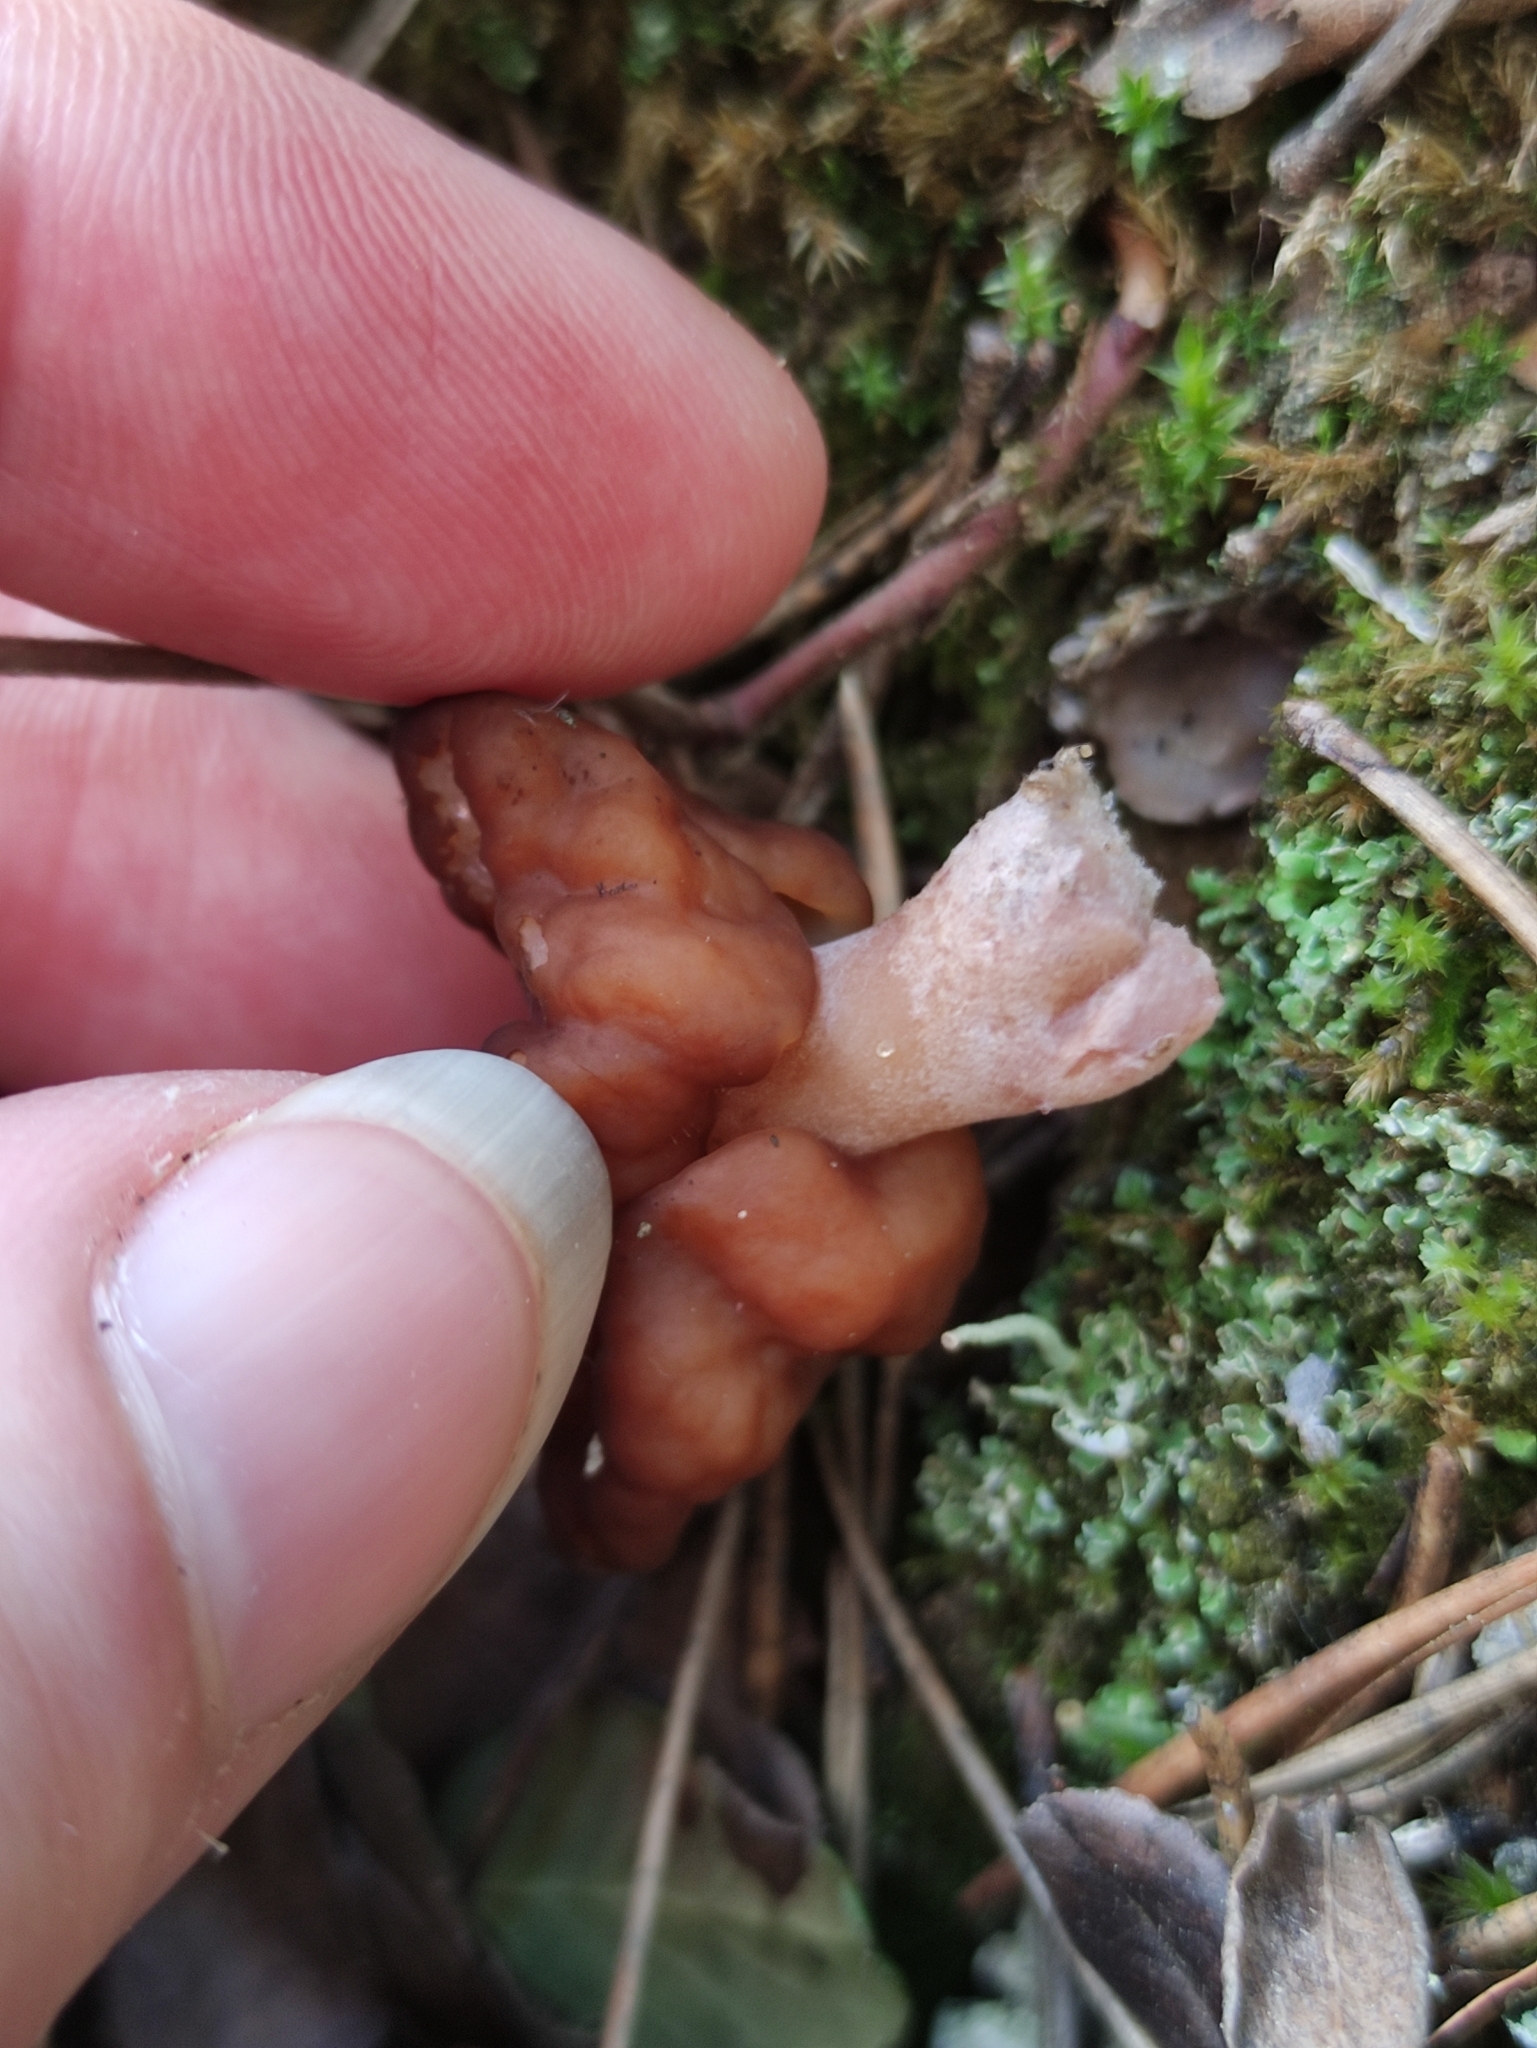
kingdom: Fungi
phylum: Ascomycota
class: Pezizomycetes
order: Pezizales
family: Discinaceae
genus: Gyromitra
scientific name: Gyromitra esculenta
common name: False morel
